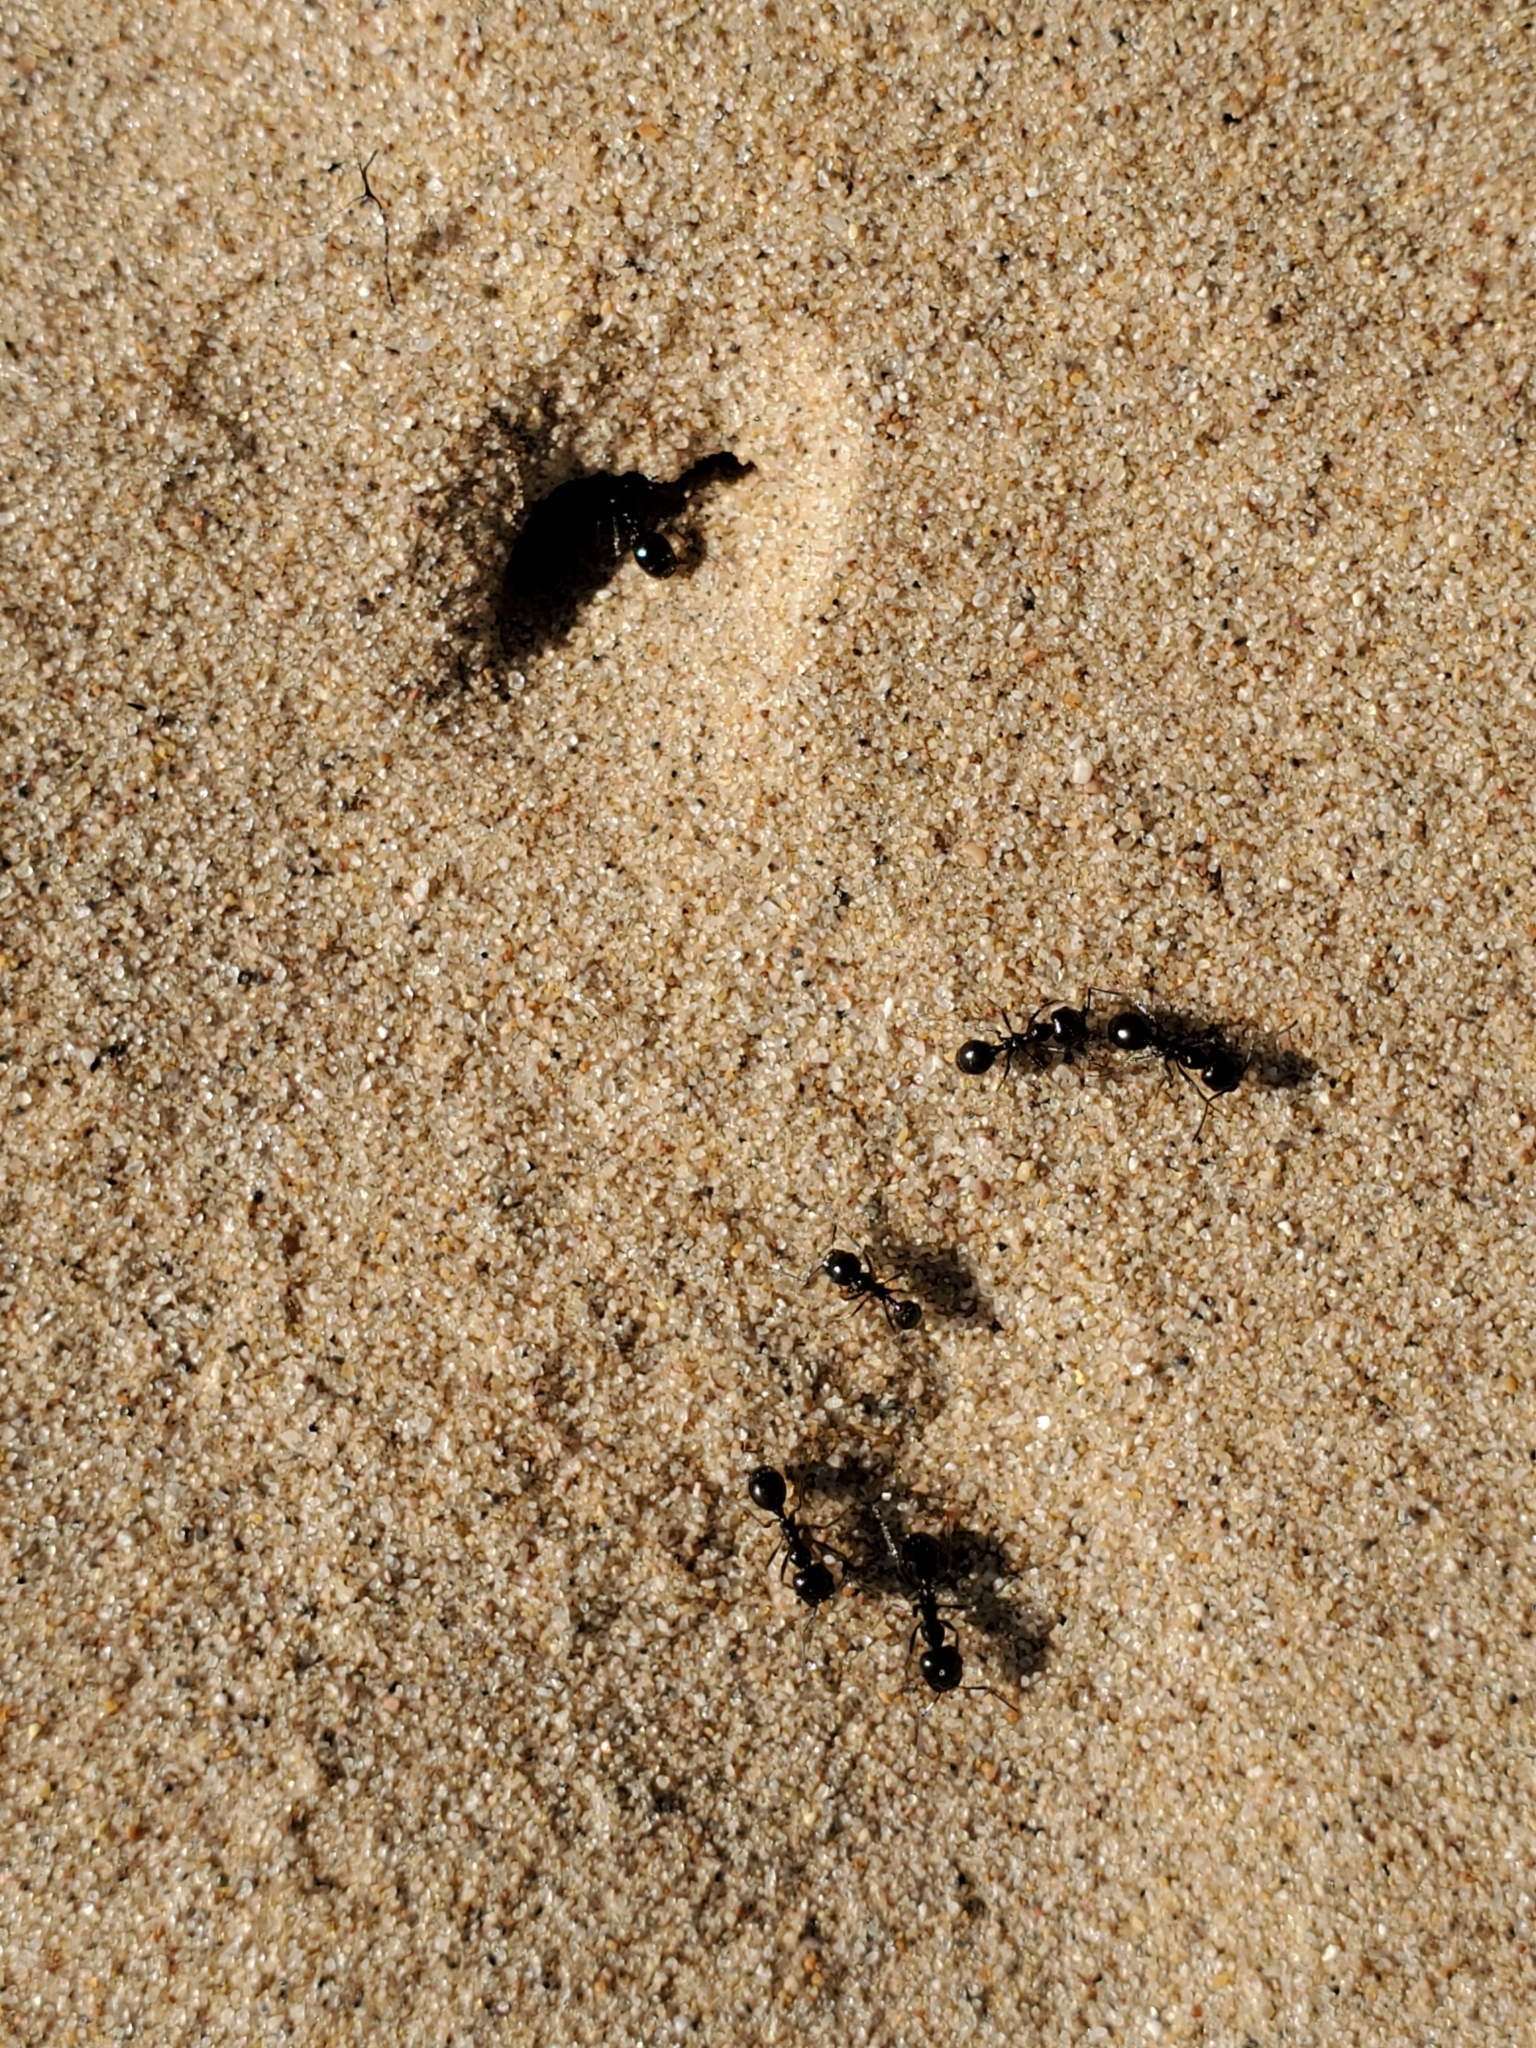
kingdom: Animalia
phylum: Arthropoda
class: Insecta
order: Hymenoptera
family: Formicidae
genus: Messor
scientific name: Messor pergandei
